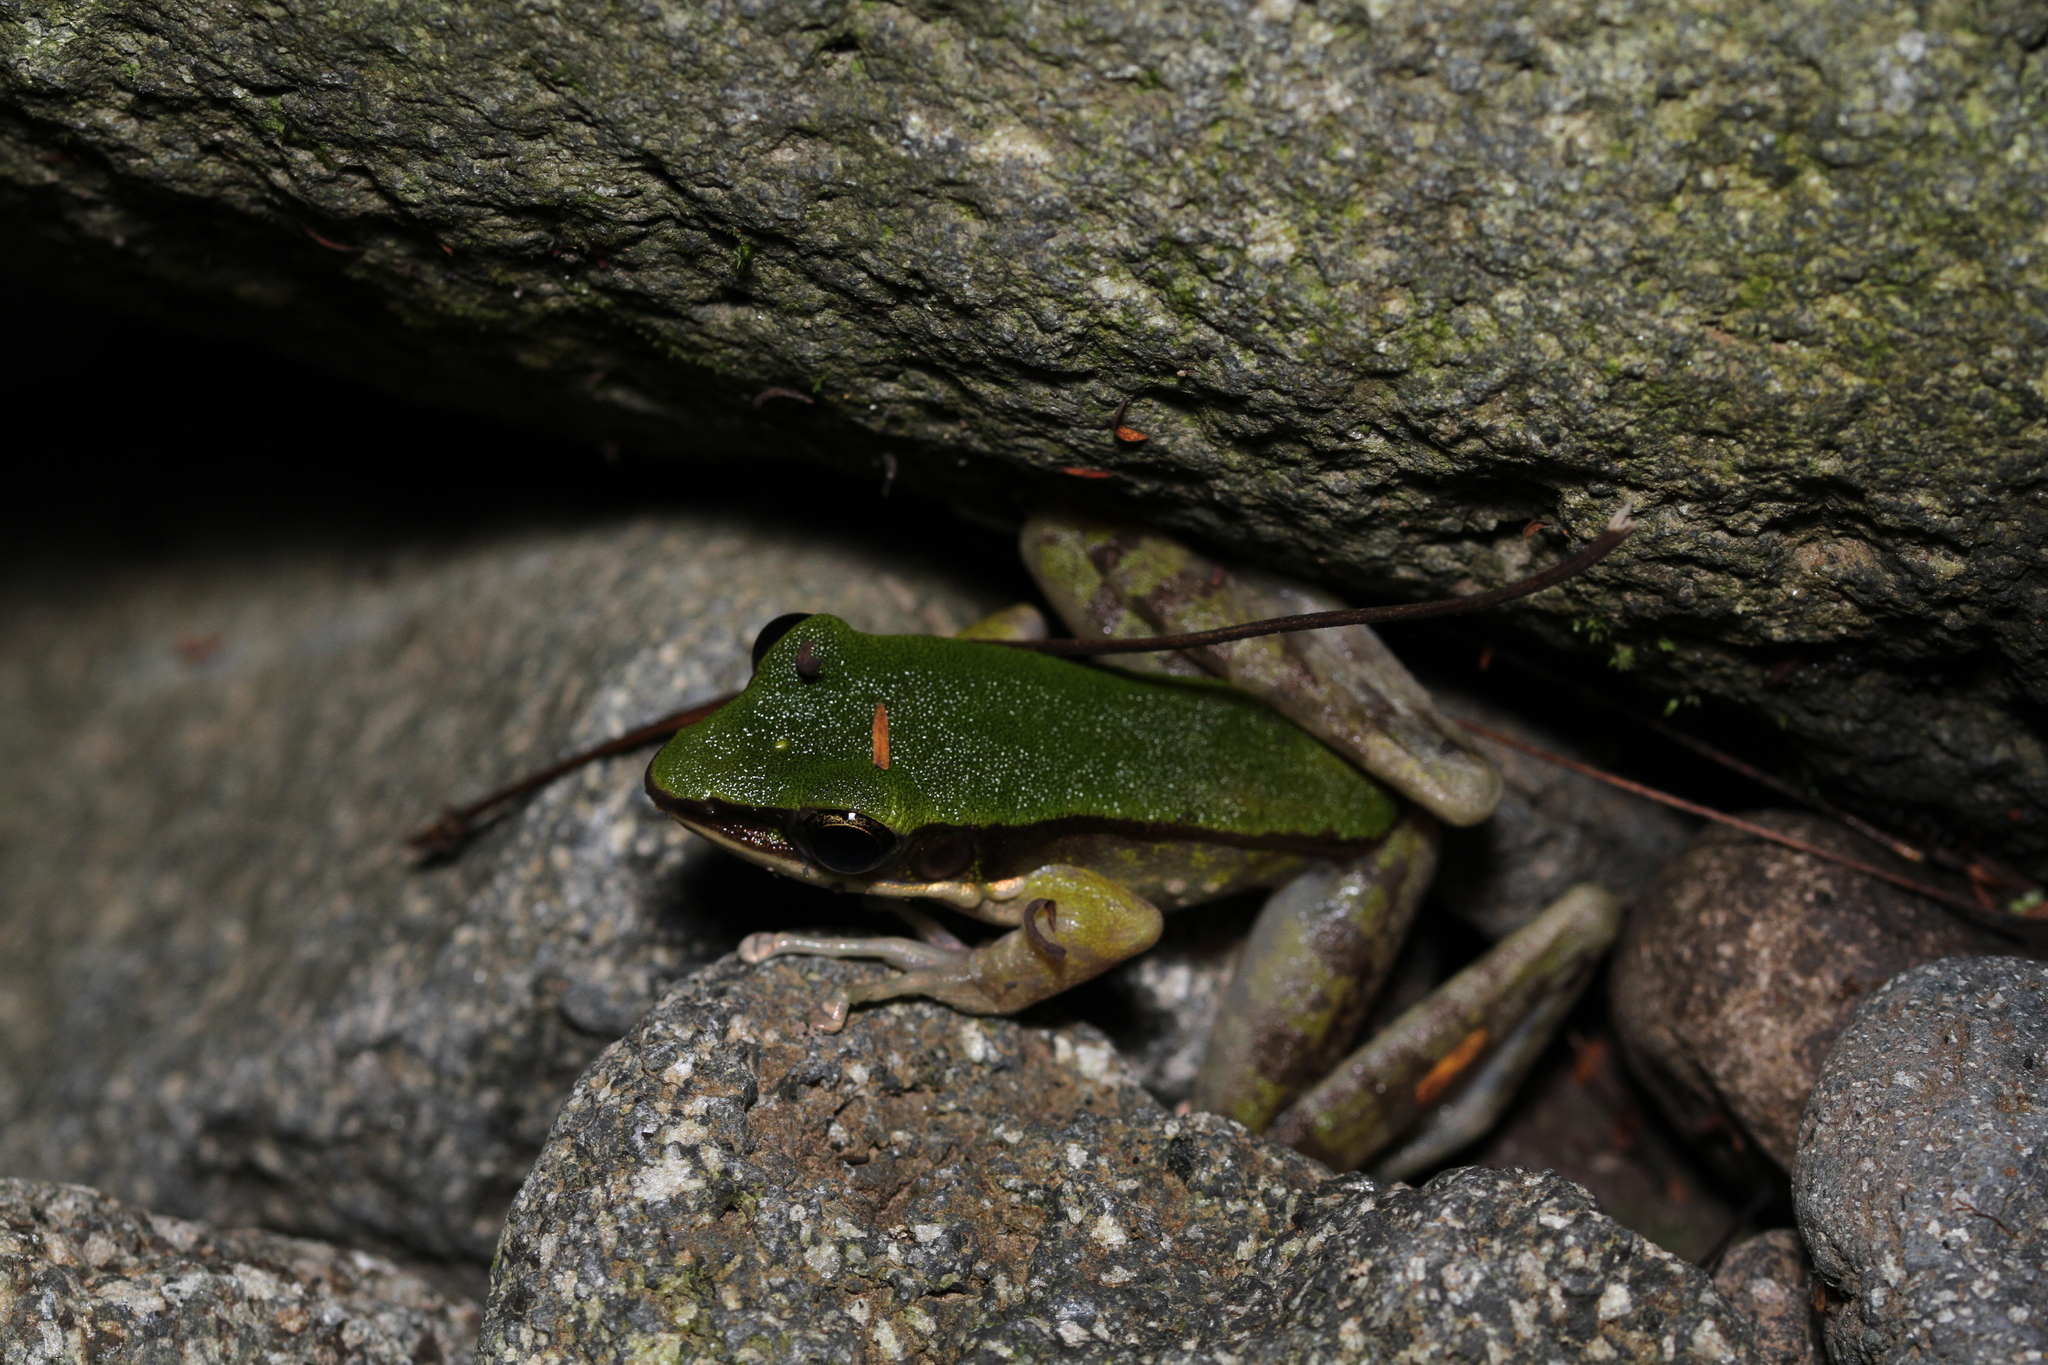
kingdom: Animalia
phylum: Chordata
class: Amphibia
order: Anura
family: Ranidae
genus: Odorrana
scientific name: Odorrana hosii
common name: Green tree frog
